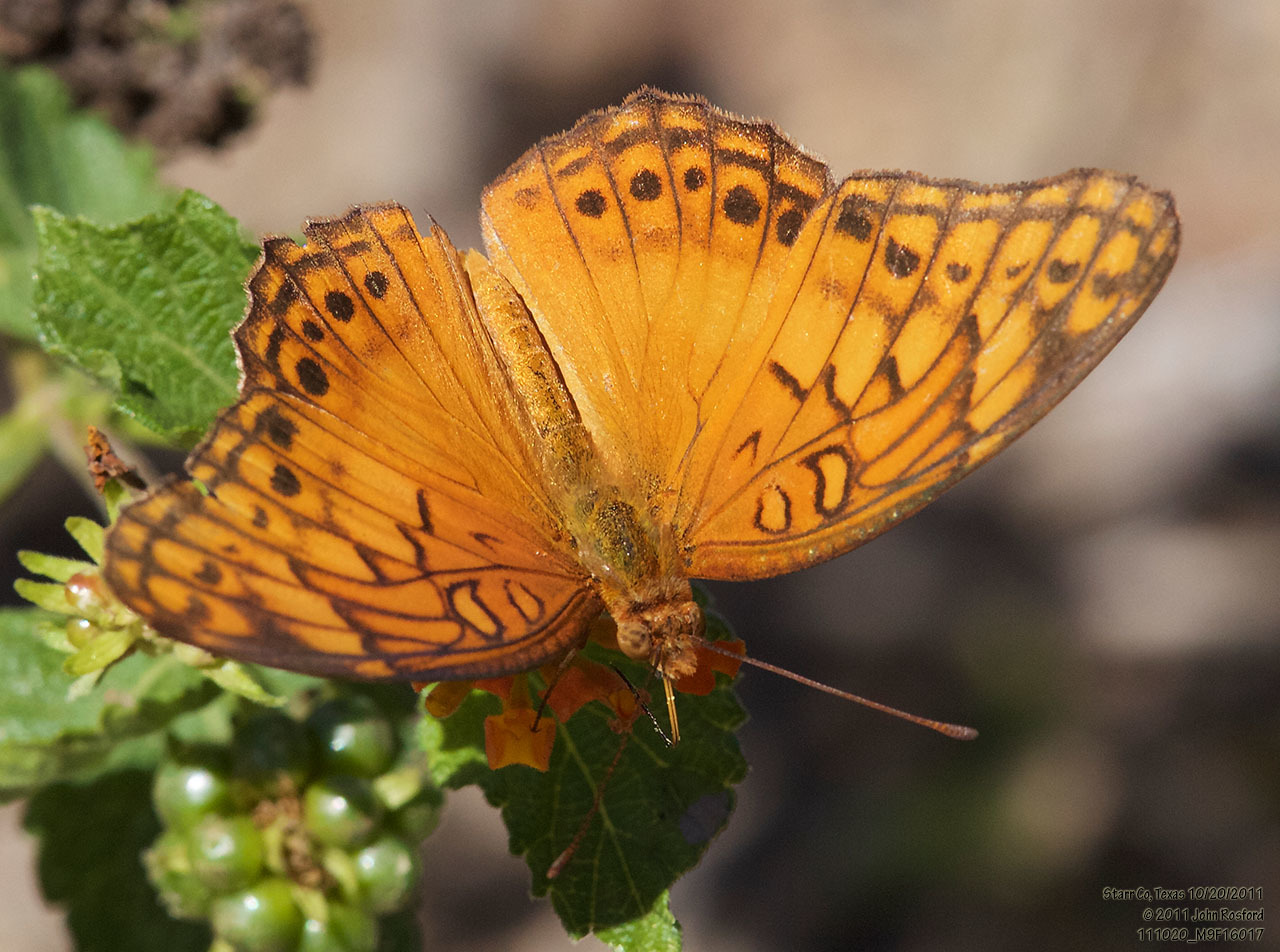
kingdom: Animalia
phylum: Arthropoda
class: Insecta
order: Lepidoptera
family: Nymphalidae
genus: Euptoieta
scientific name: Euptoieta hegesia
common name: Mexican fritillary
